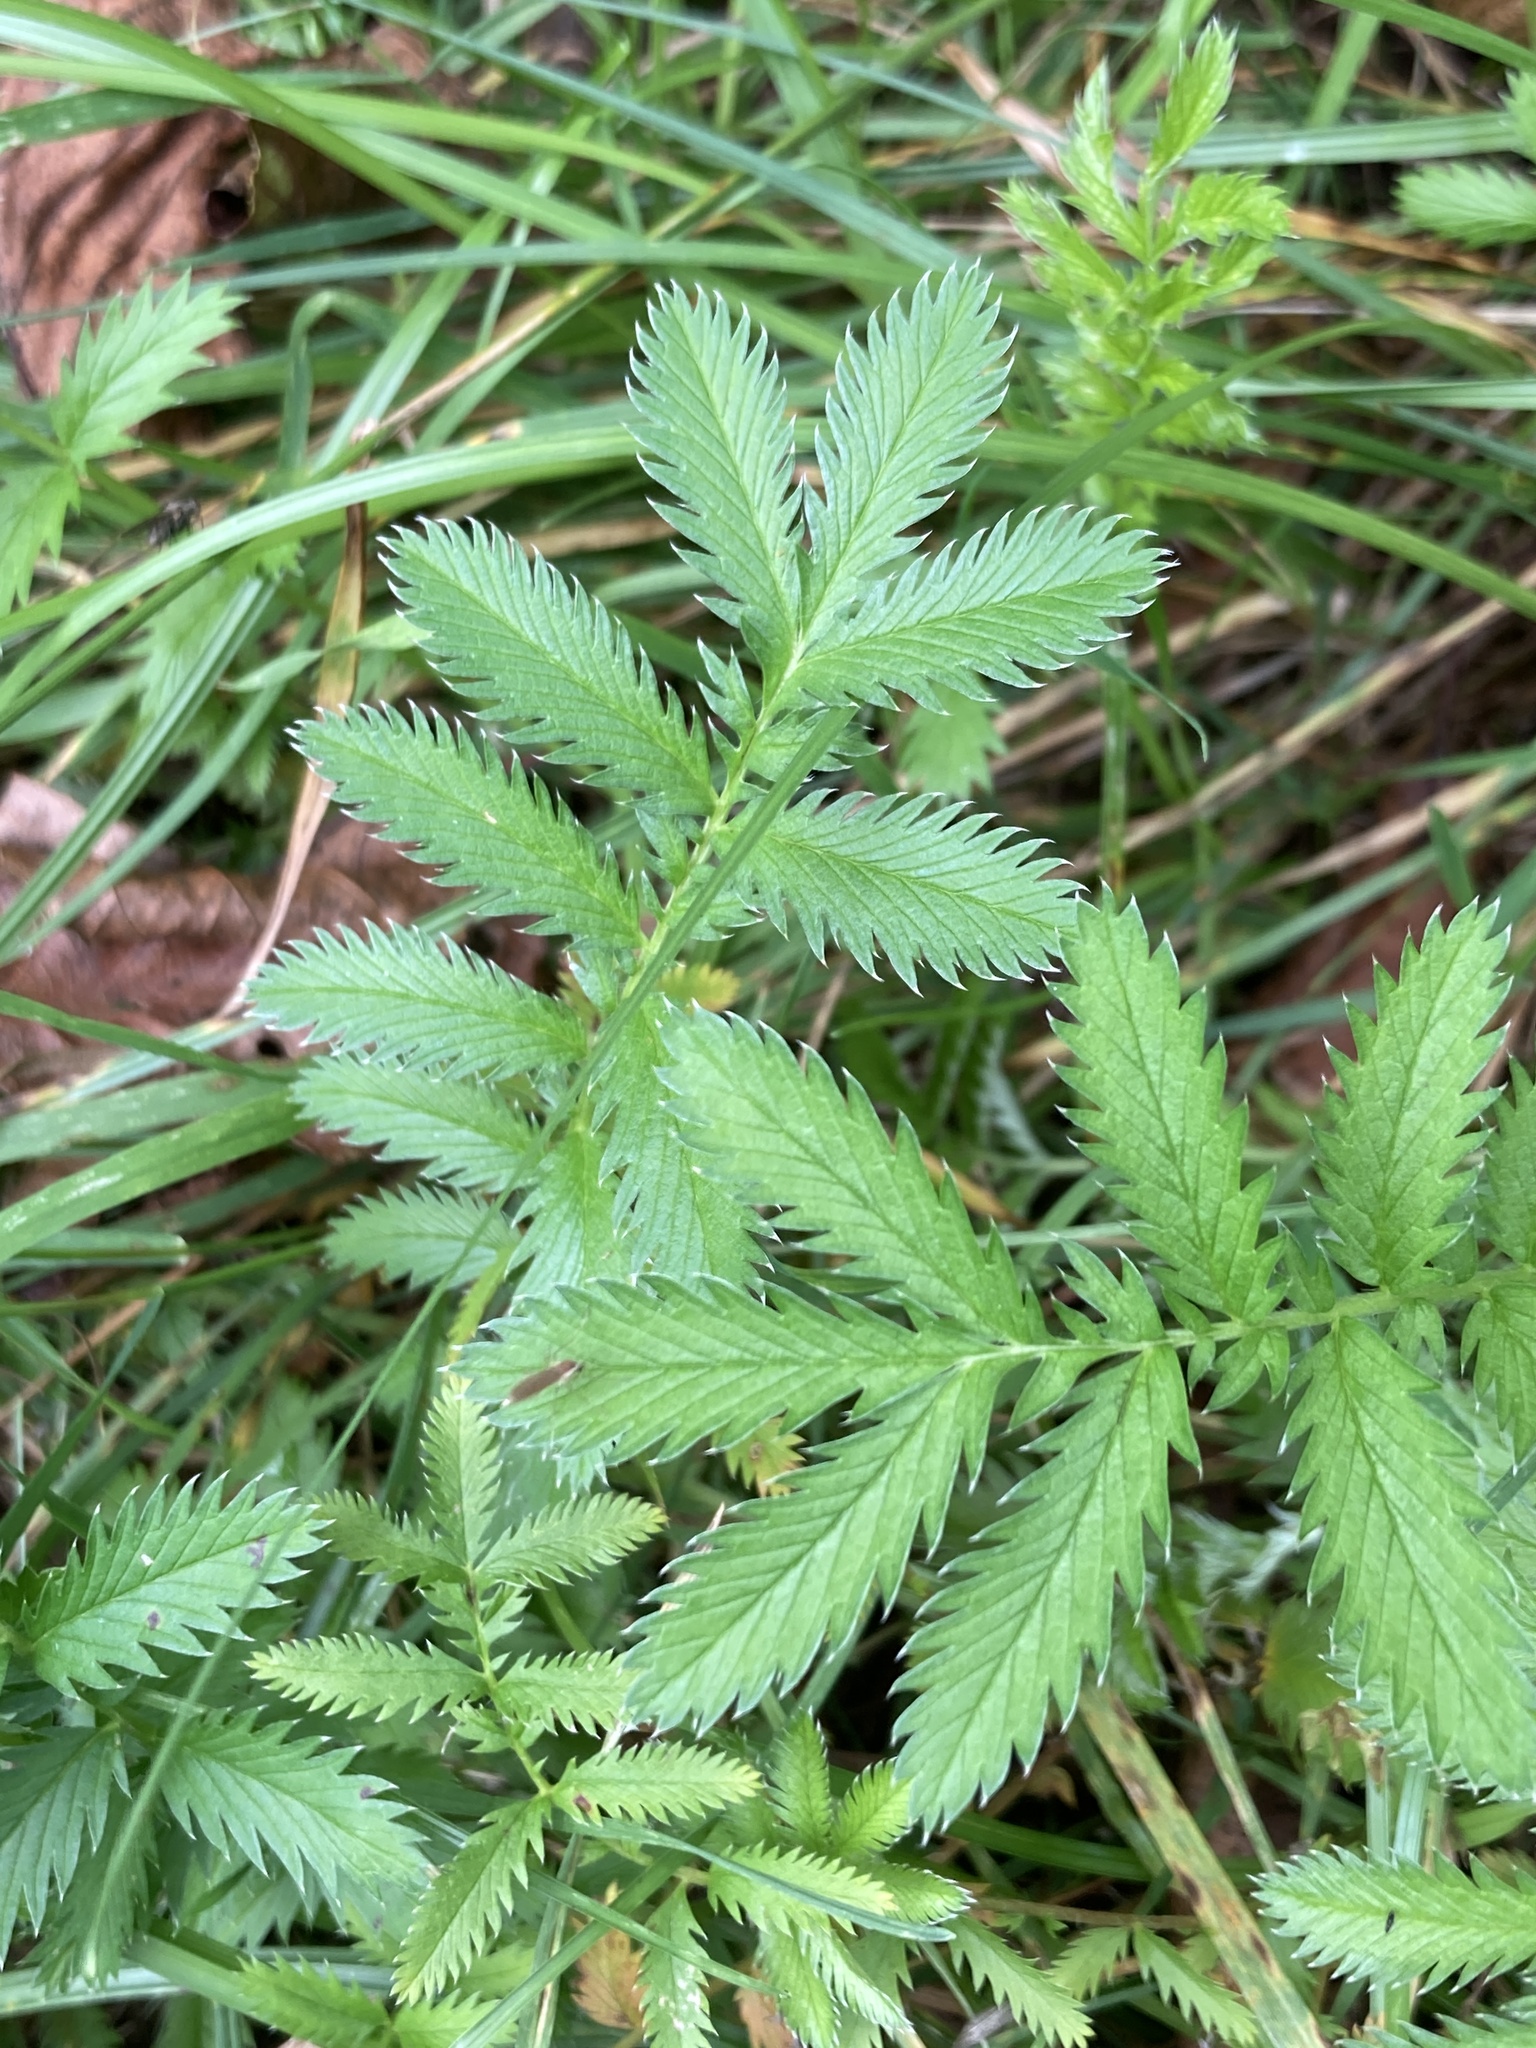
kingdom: Plantae
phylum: Tracheophyta
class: Magnoliopsida
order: Rosales
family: Rosaceae
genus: Argentina
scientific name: Argentina anserina
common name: Common silverweed
